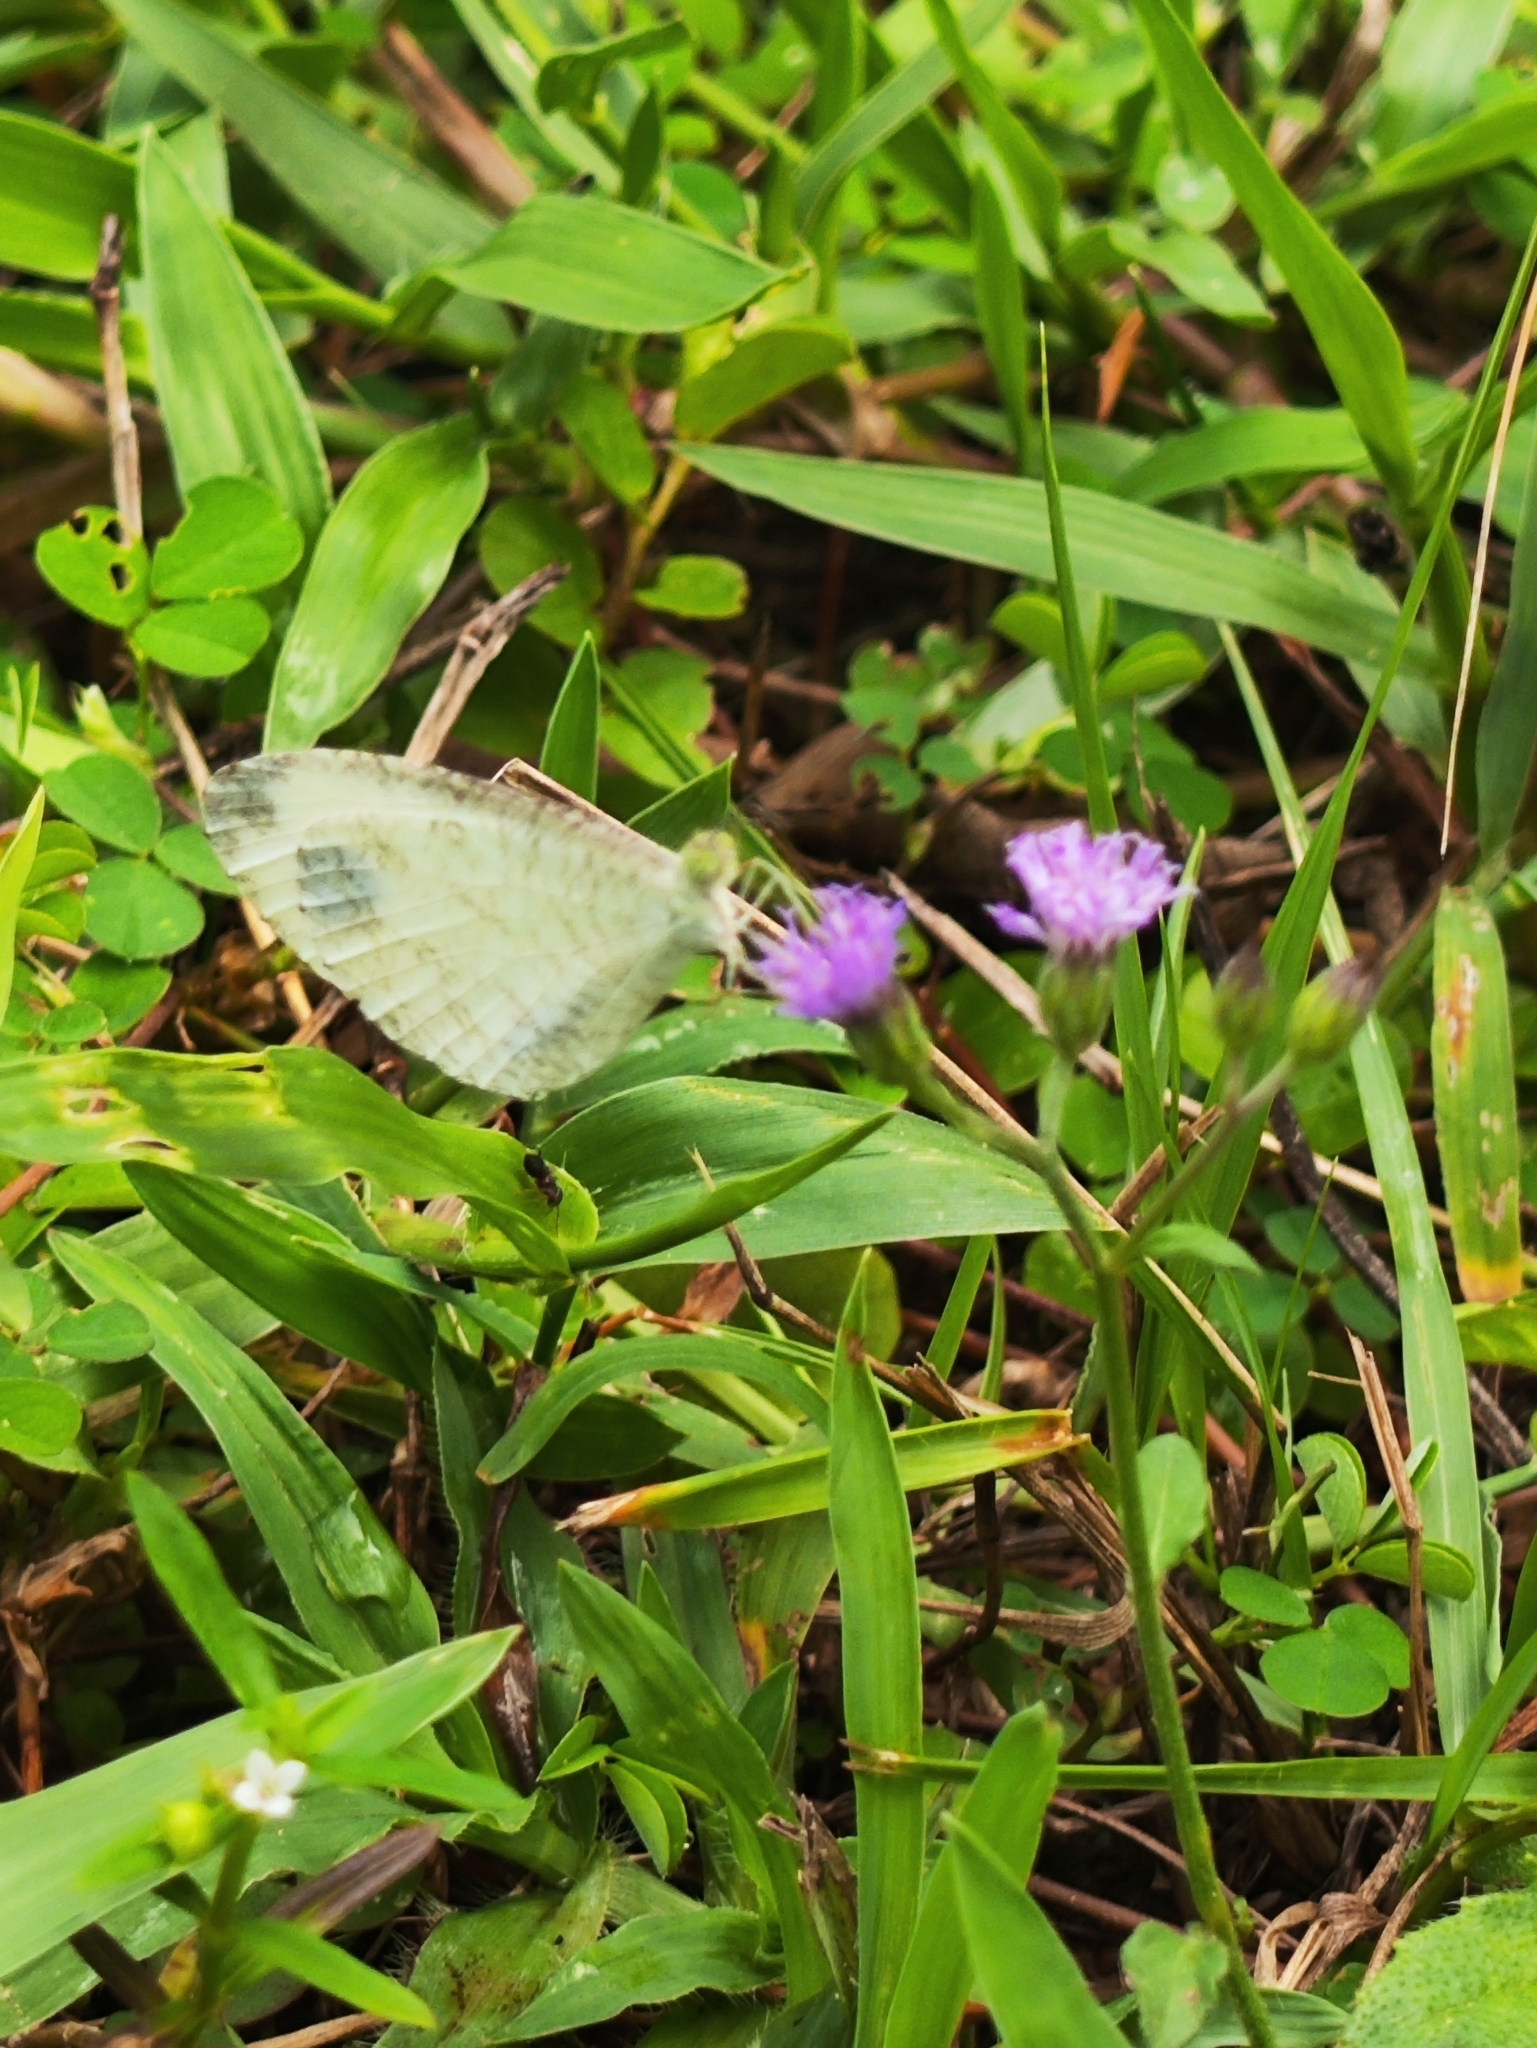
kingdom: Animalia
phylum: Arthropoda
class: Insecta
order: Lepidoptera
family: Pieridae
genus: Leptosia
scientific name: Leptosia nina
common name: Psyche
